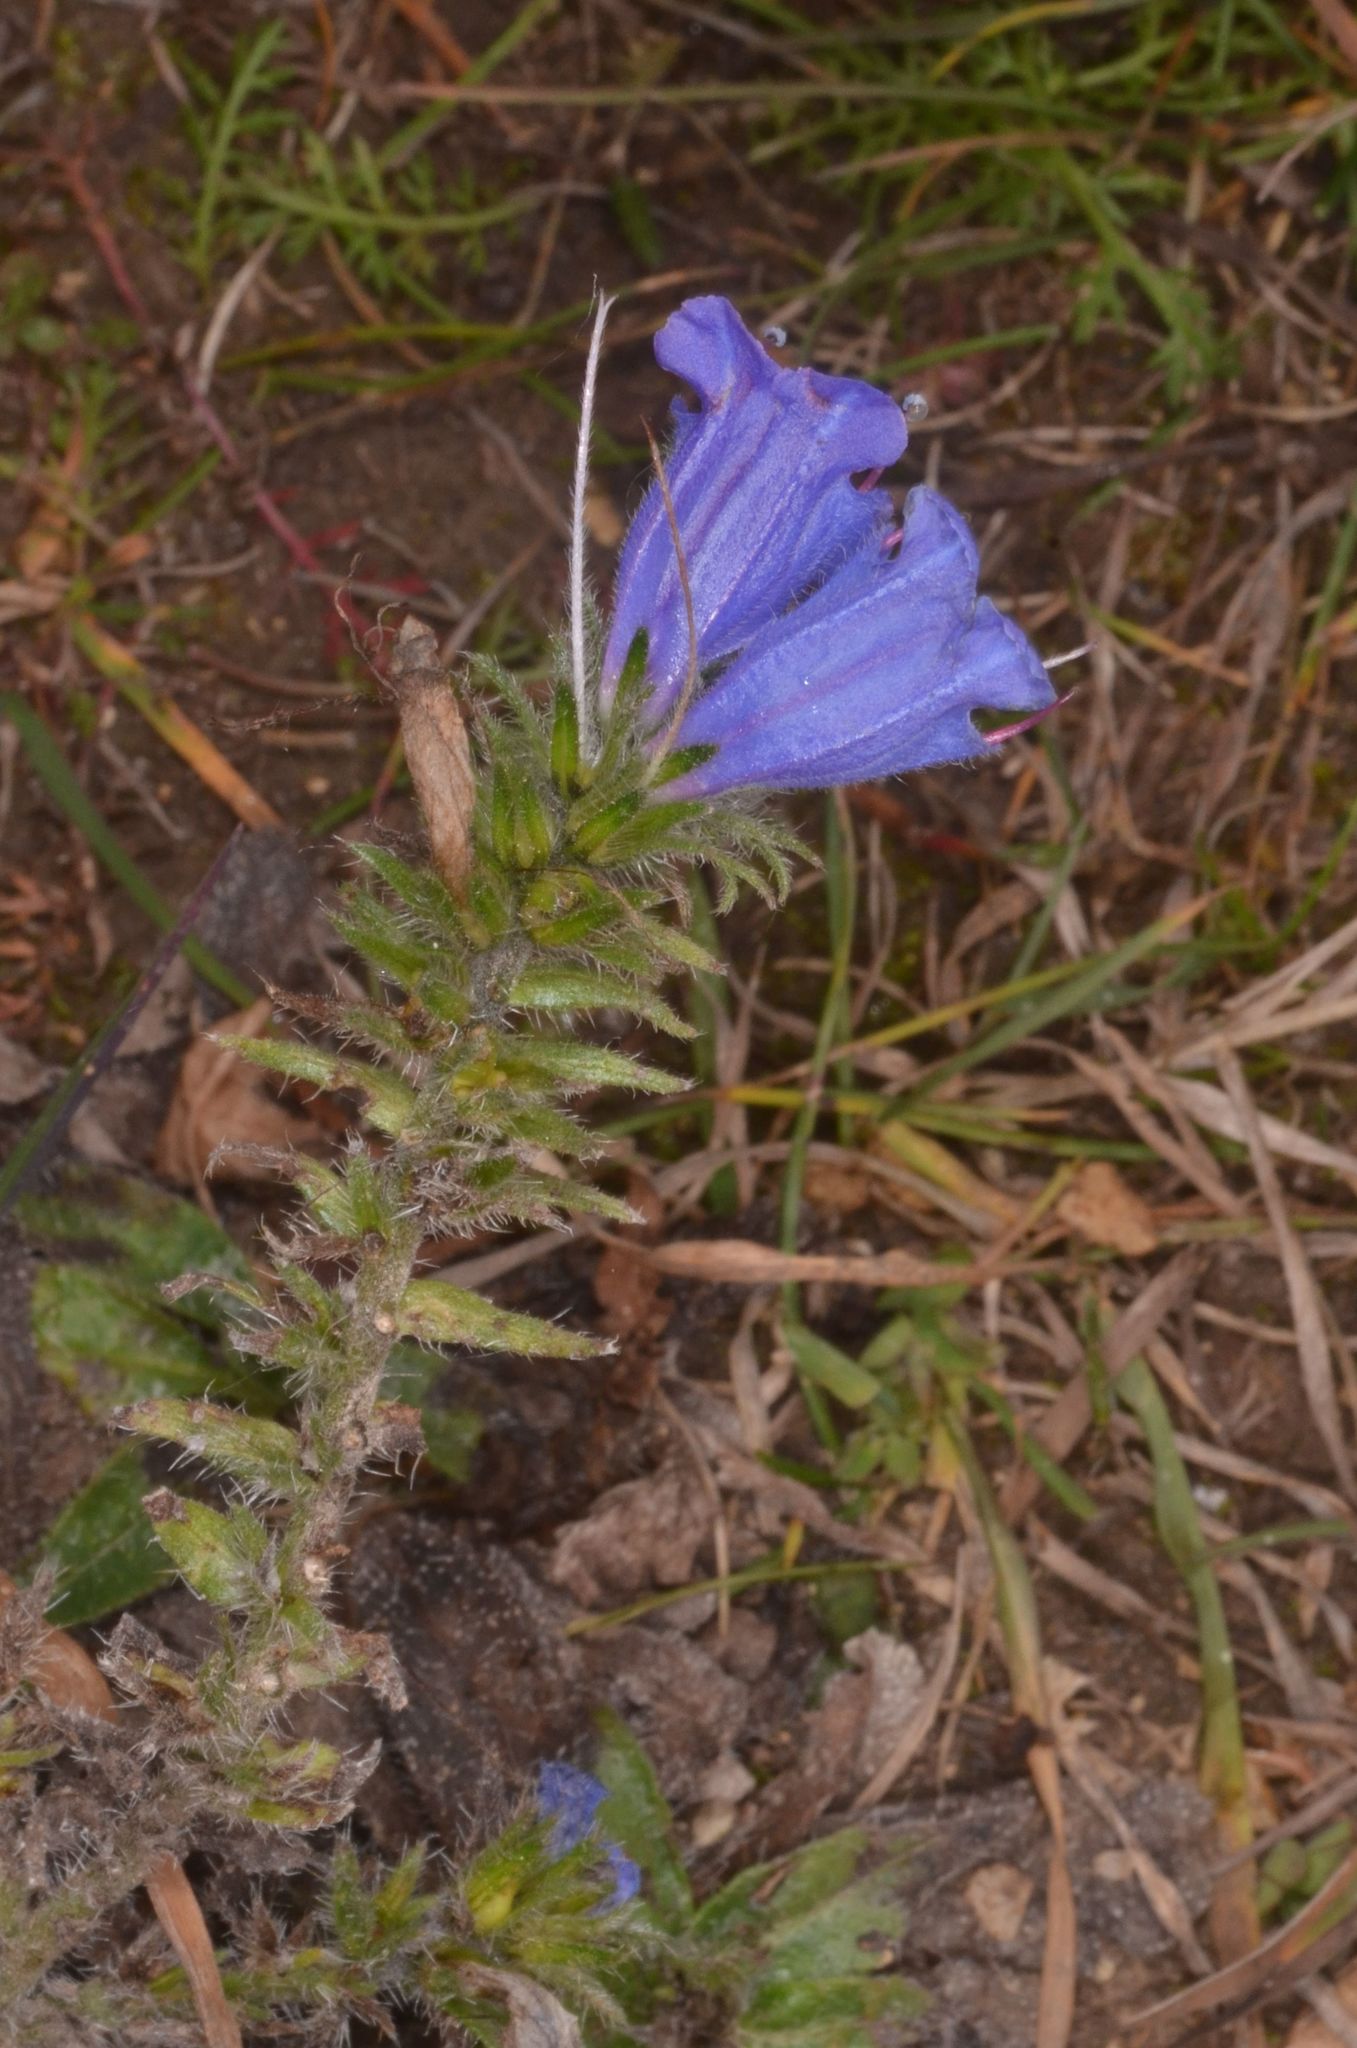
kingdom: Plantae
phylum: Tracheophyta
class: Magnoliopsida
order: Boraginales
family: Boraginaceae
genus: Echium
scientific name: Echium vulgare
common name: Common viper's bugloss
